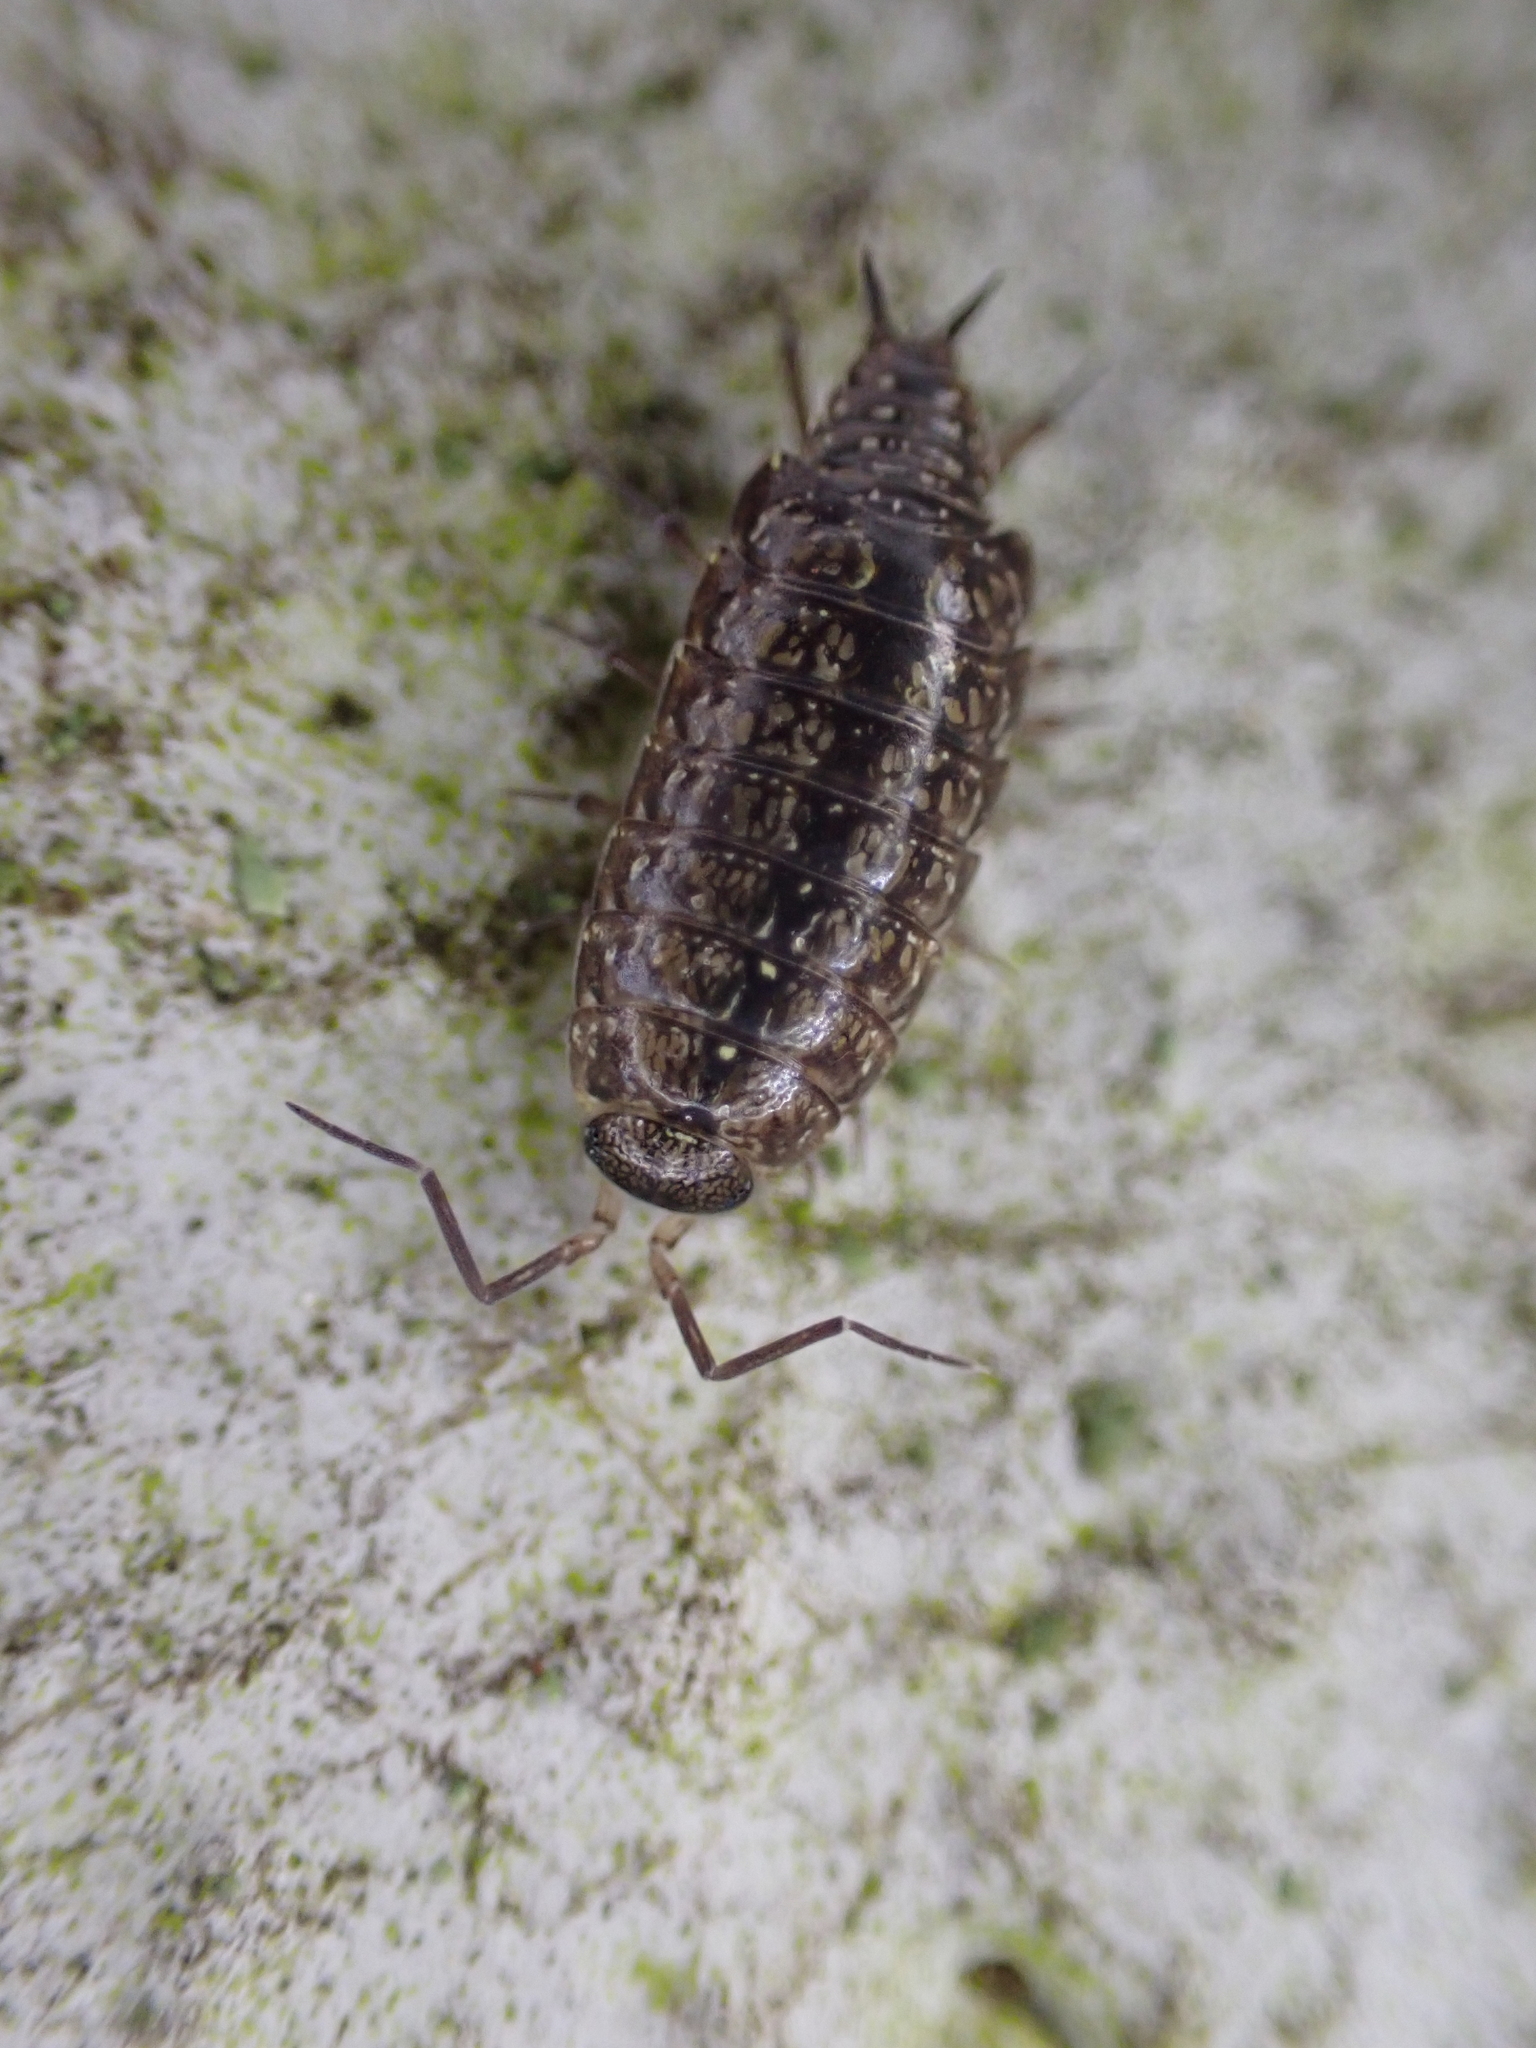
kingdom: Animalia
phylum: Arthropoda
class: Malacostraca
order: Isopoda
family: Philosciidae
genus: Philoscia
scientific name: Philoscia affinis
